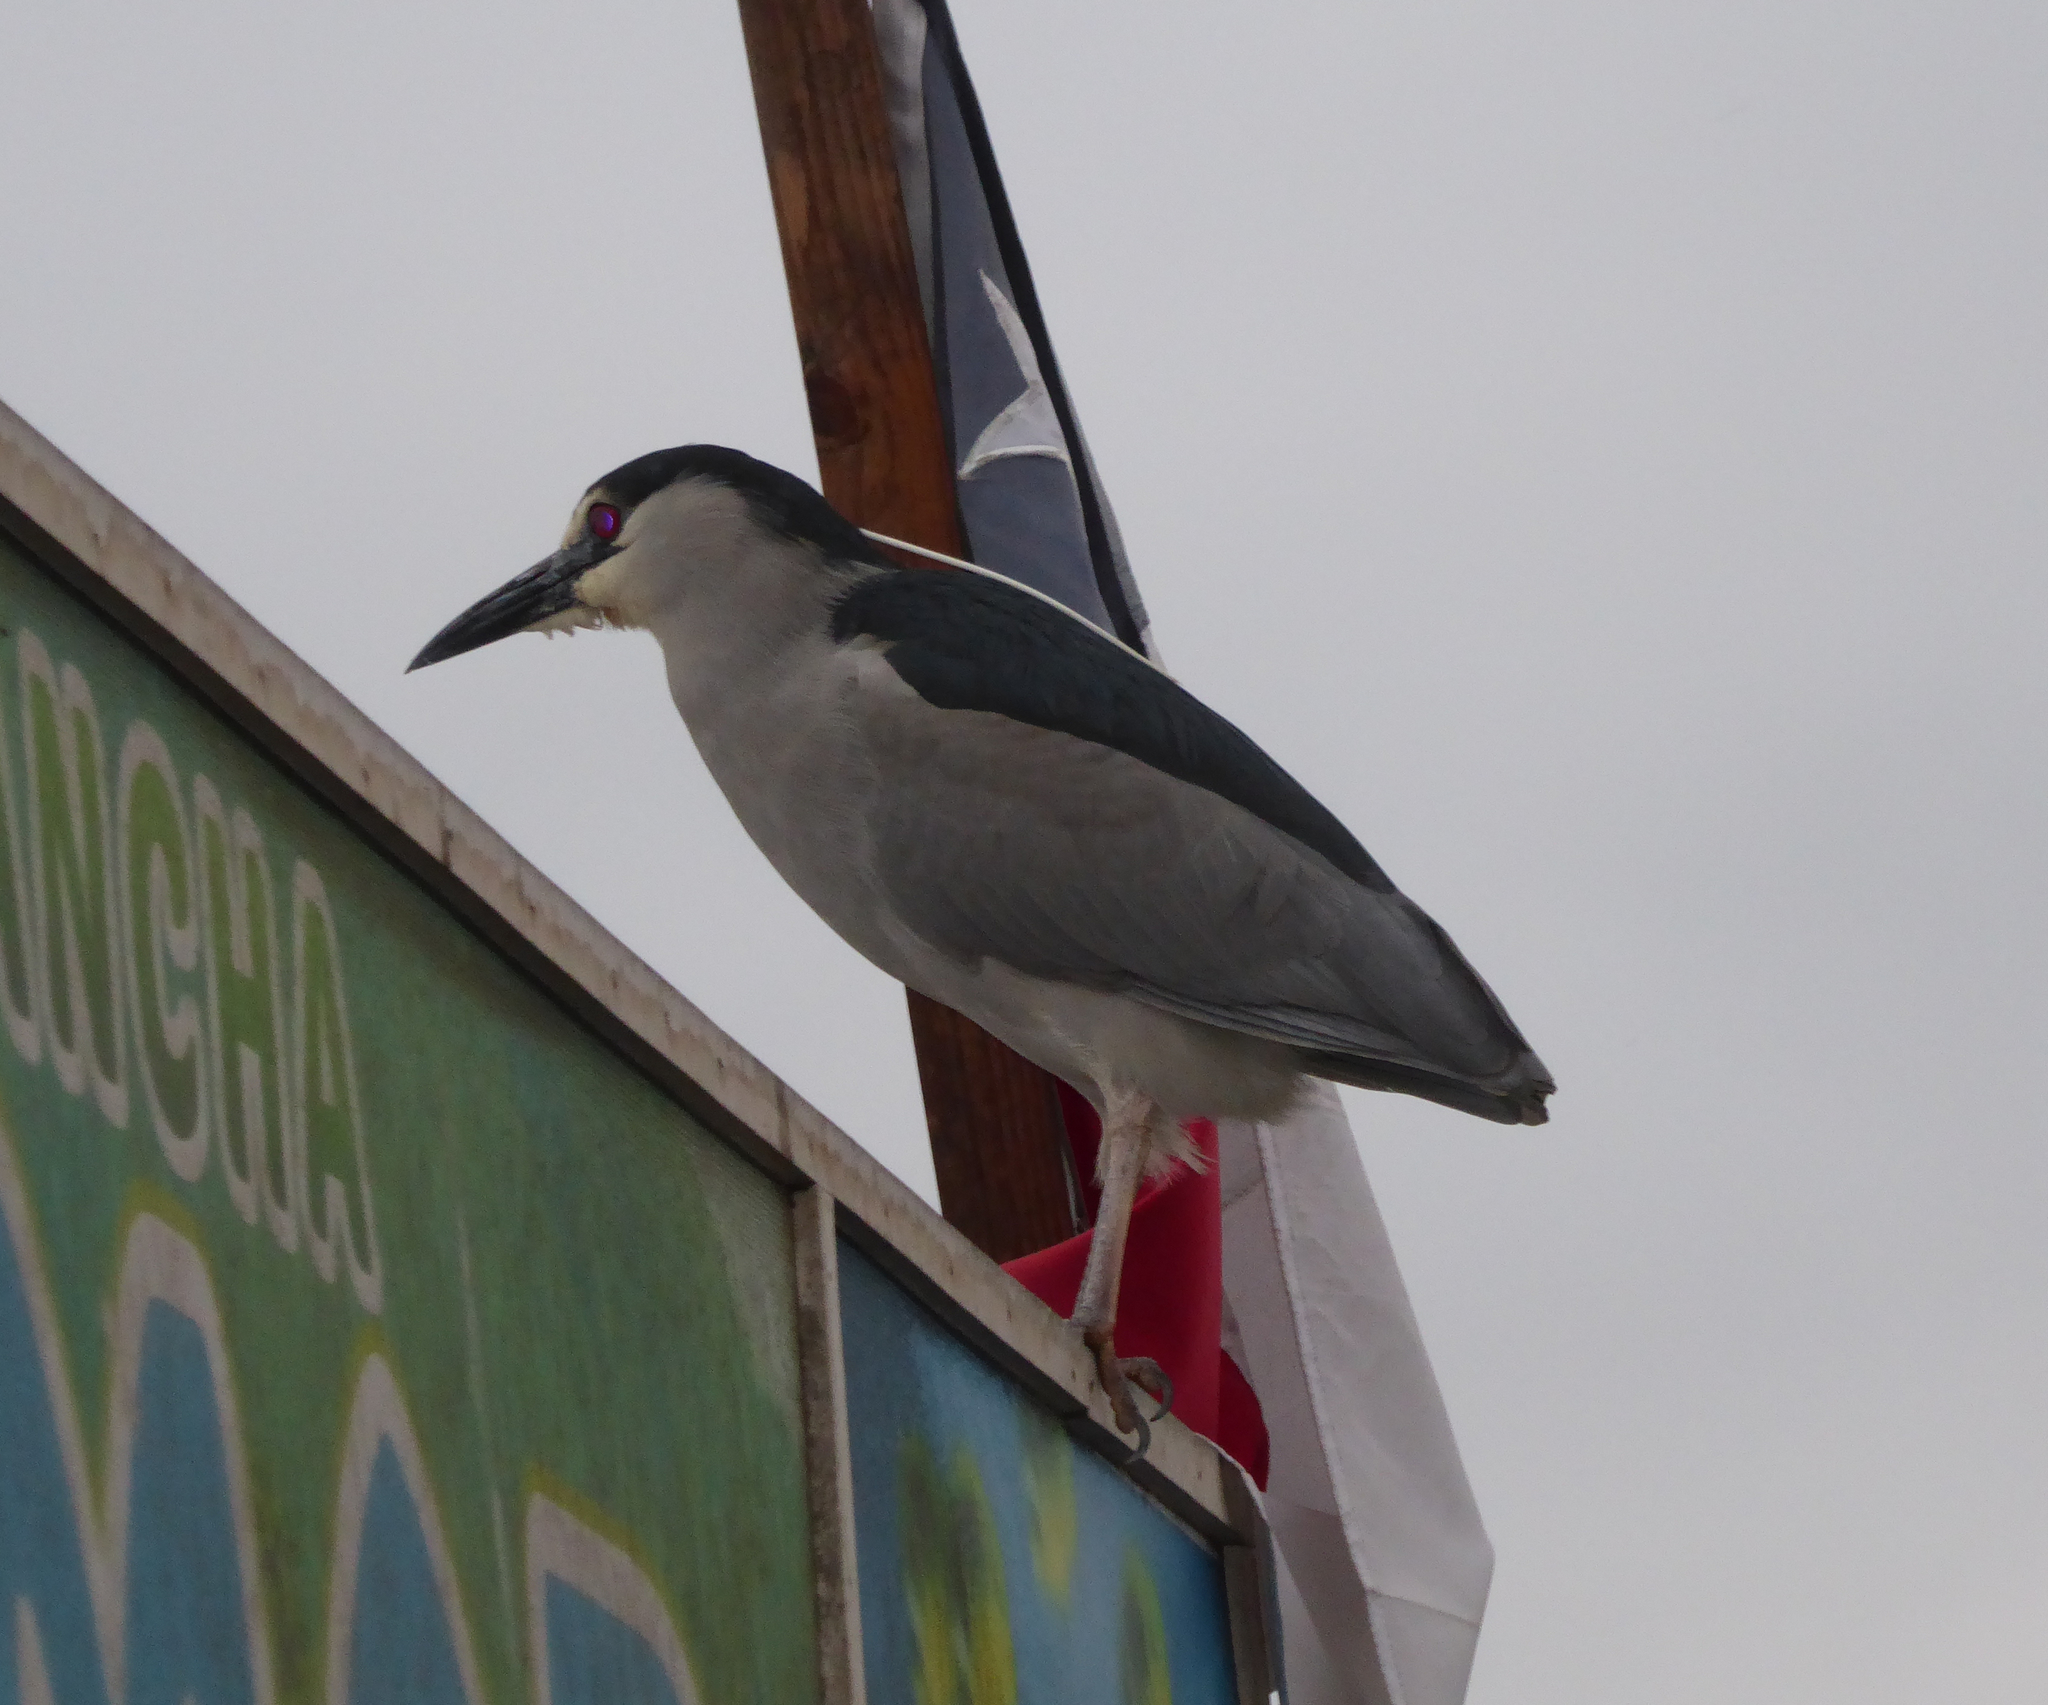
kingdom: Animalia
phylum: Chordata
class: Aves
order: Pelecaniformes
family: Ardeidae
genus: Nycticorax
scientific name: Nycticorax nycticorax
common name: Black-crowned night heron
